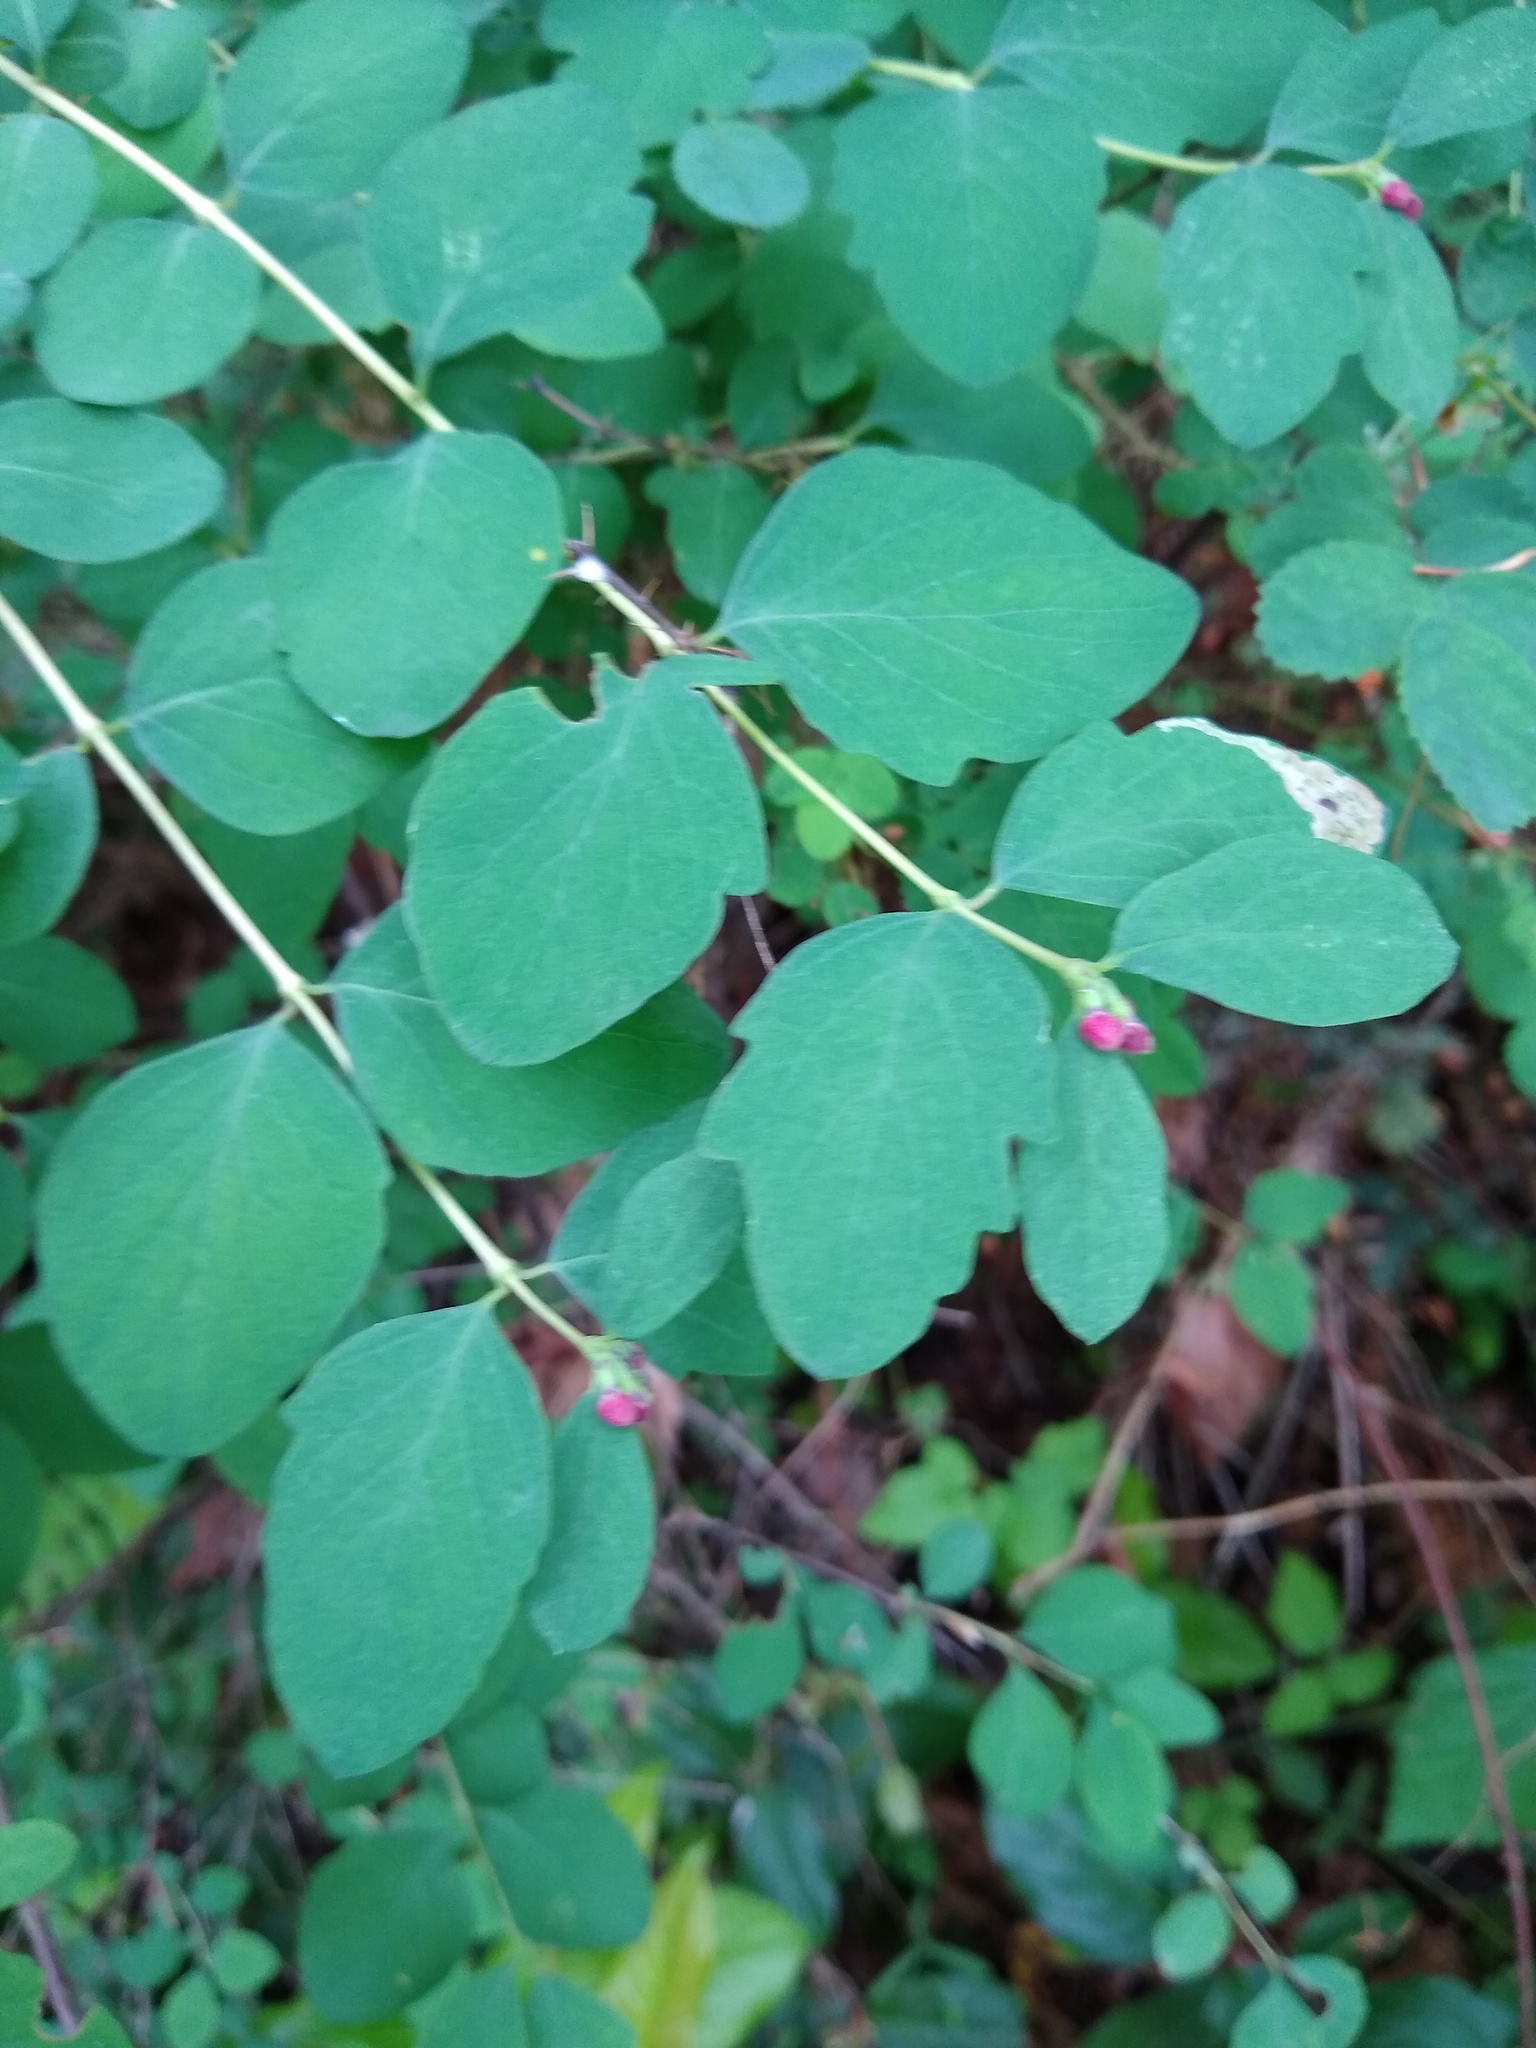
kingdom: Plantae
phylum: Tracheophyta
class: Magnoliopsida
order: Dipsacales
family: Caprifoliaceae
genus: Symphoricarpos
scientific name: Symphoricarpos albus
